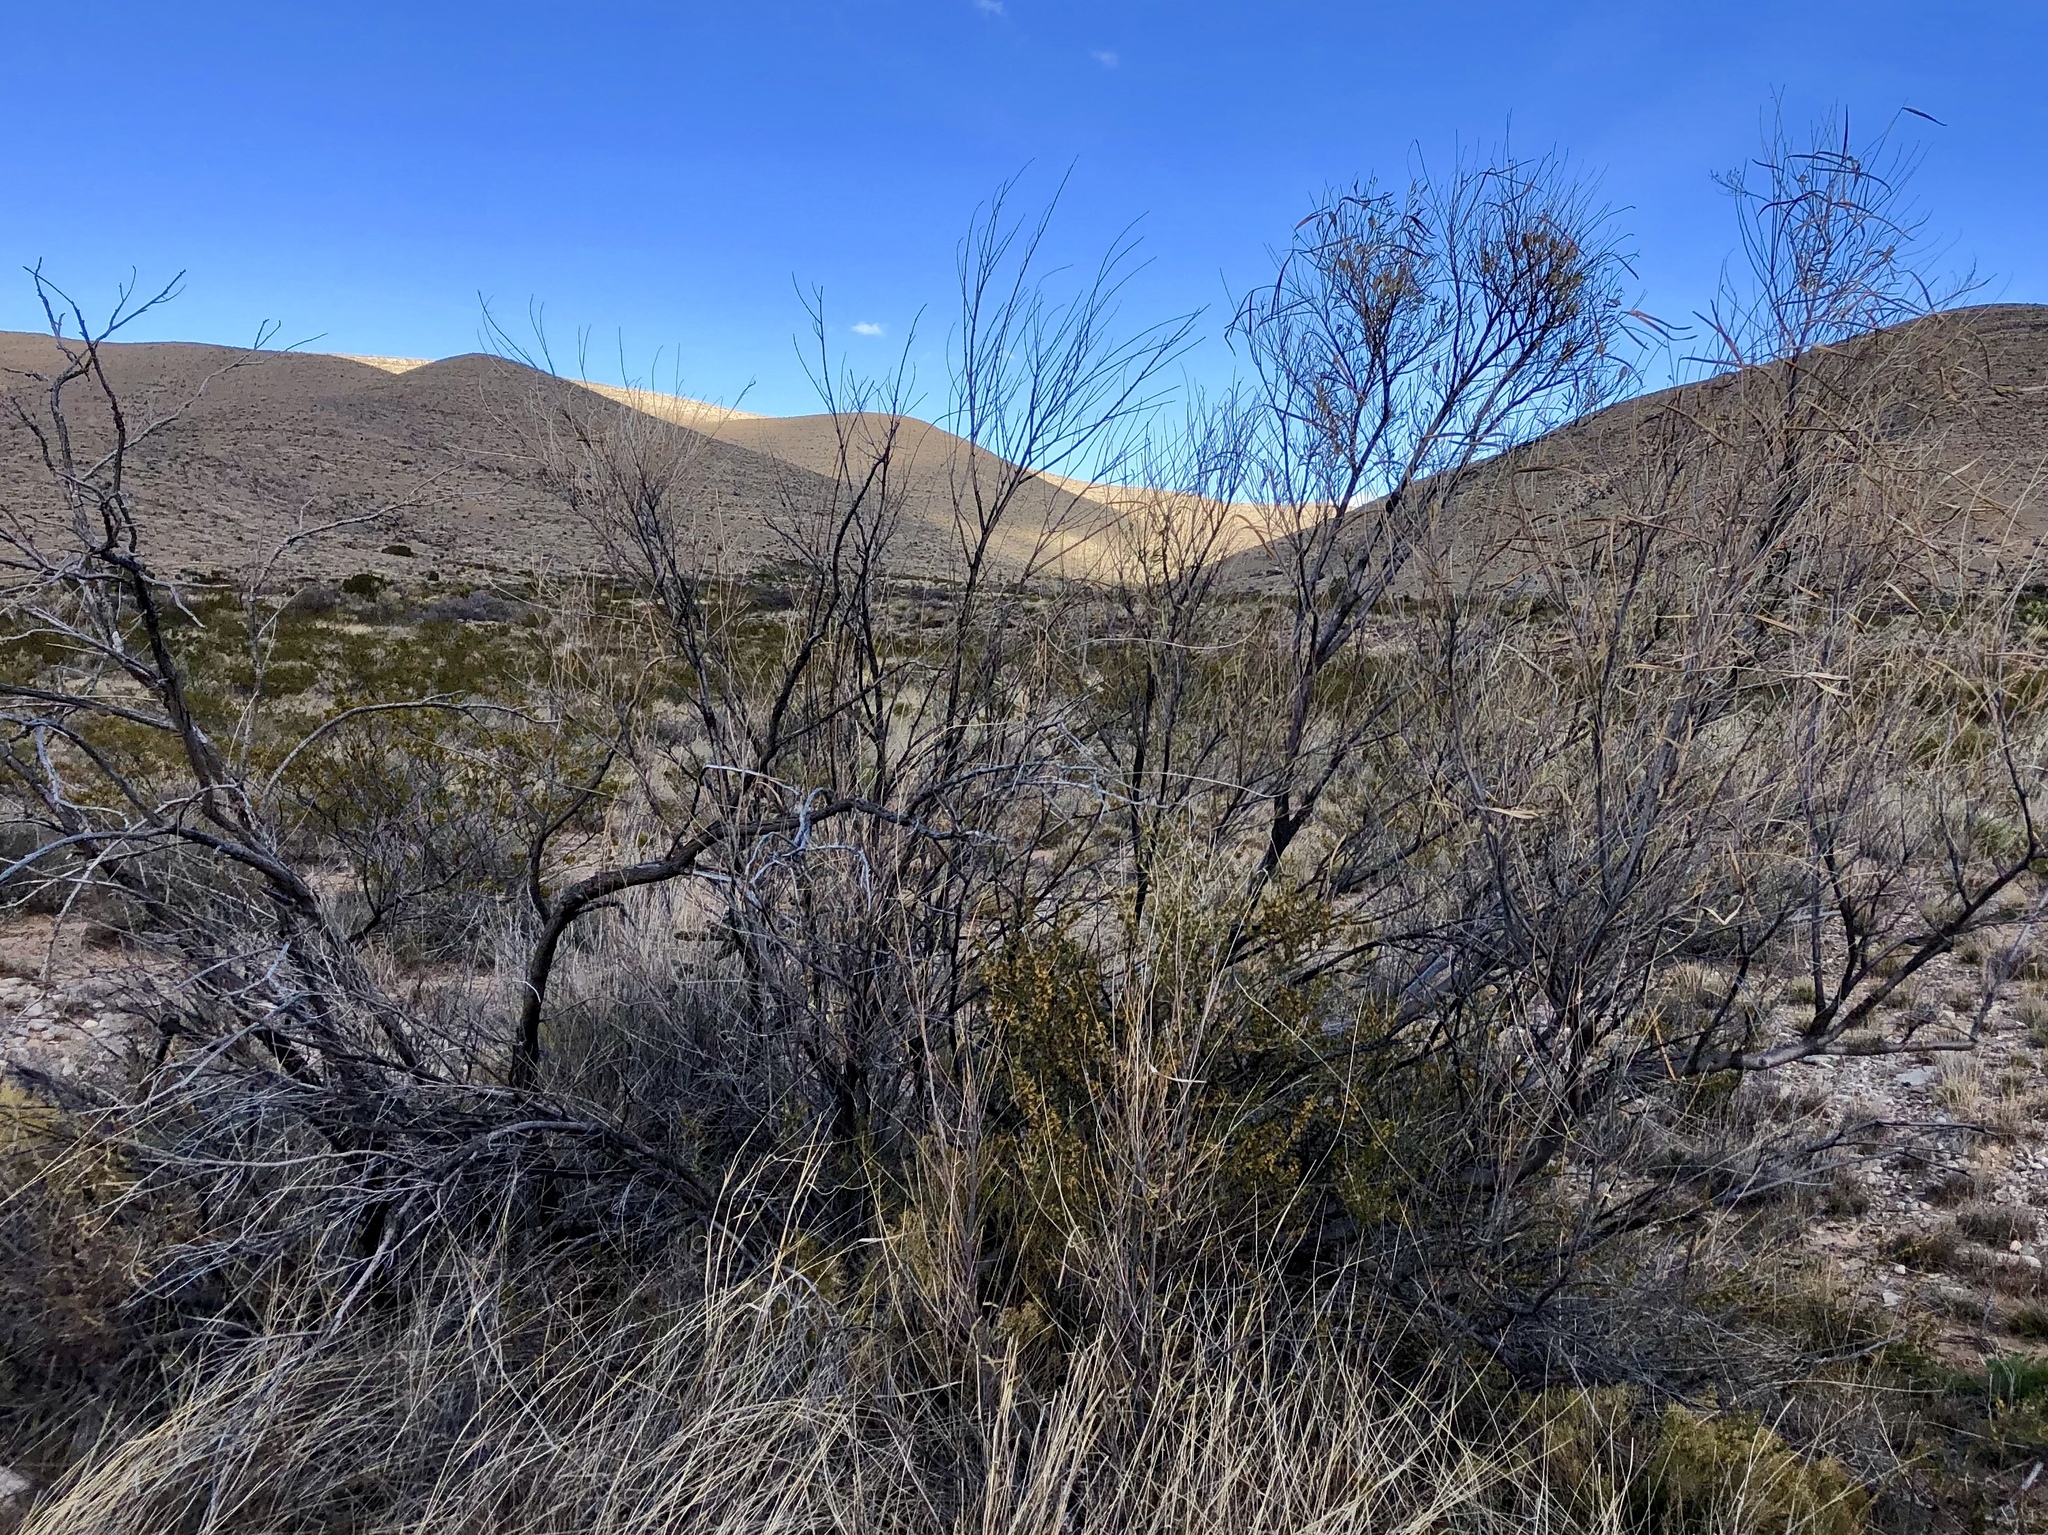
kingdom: Plantae
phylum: Tracheophyta
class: Magnoliopsida
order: Lamiales
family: Bignoniaceae
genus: Chilopsis
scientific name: Chilopsis linearis
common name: Desert-willow
